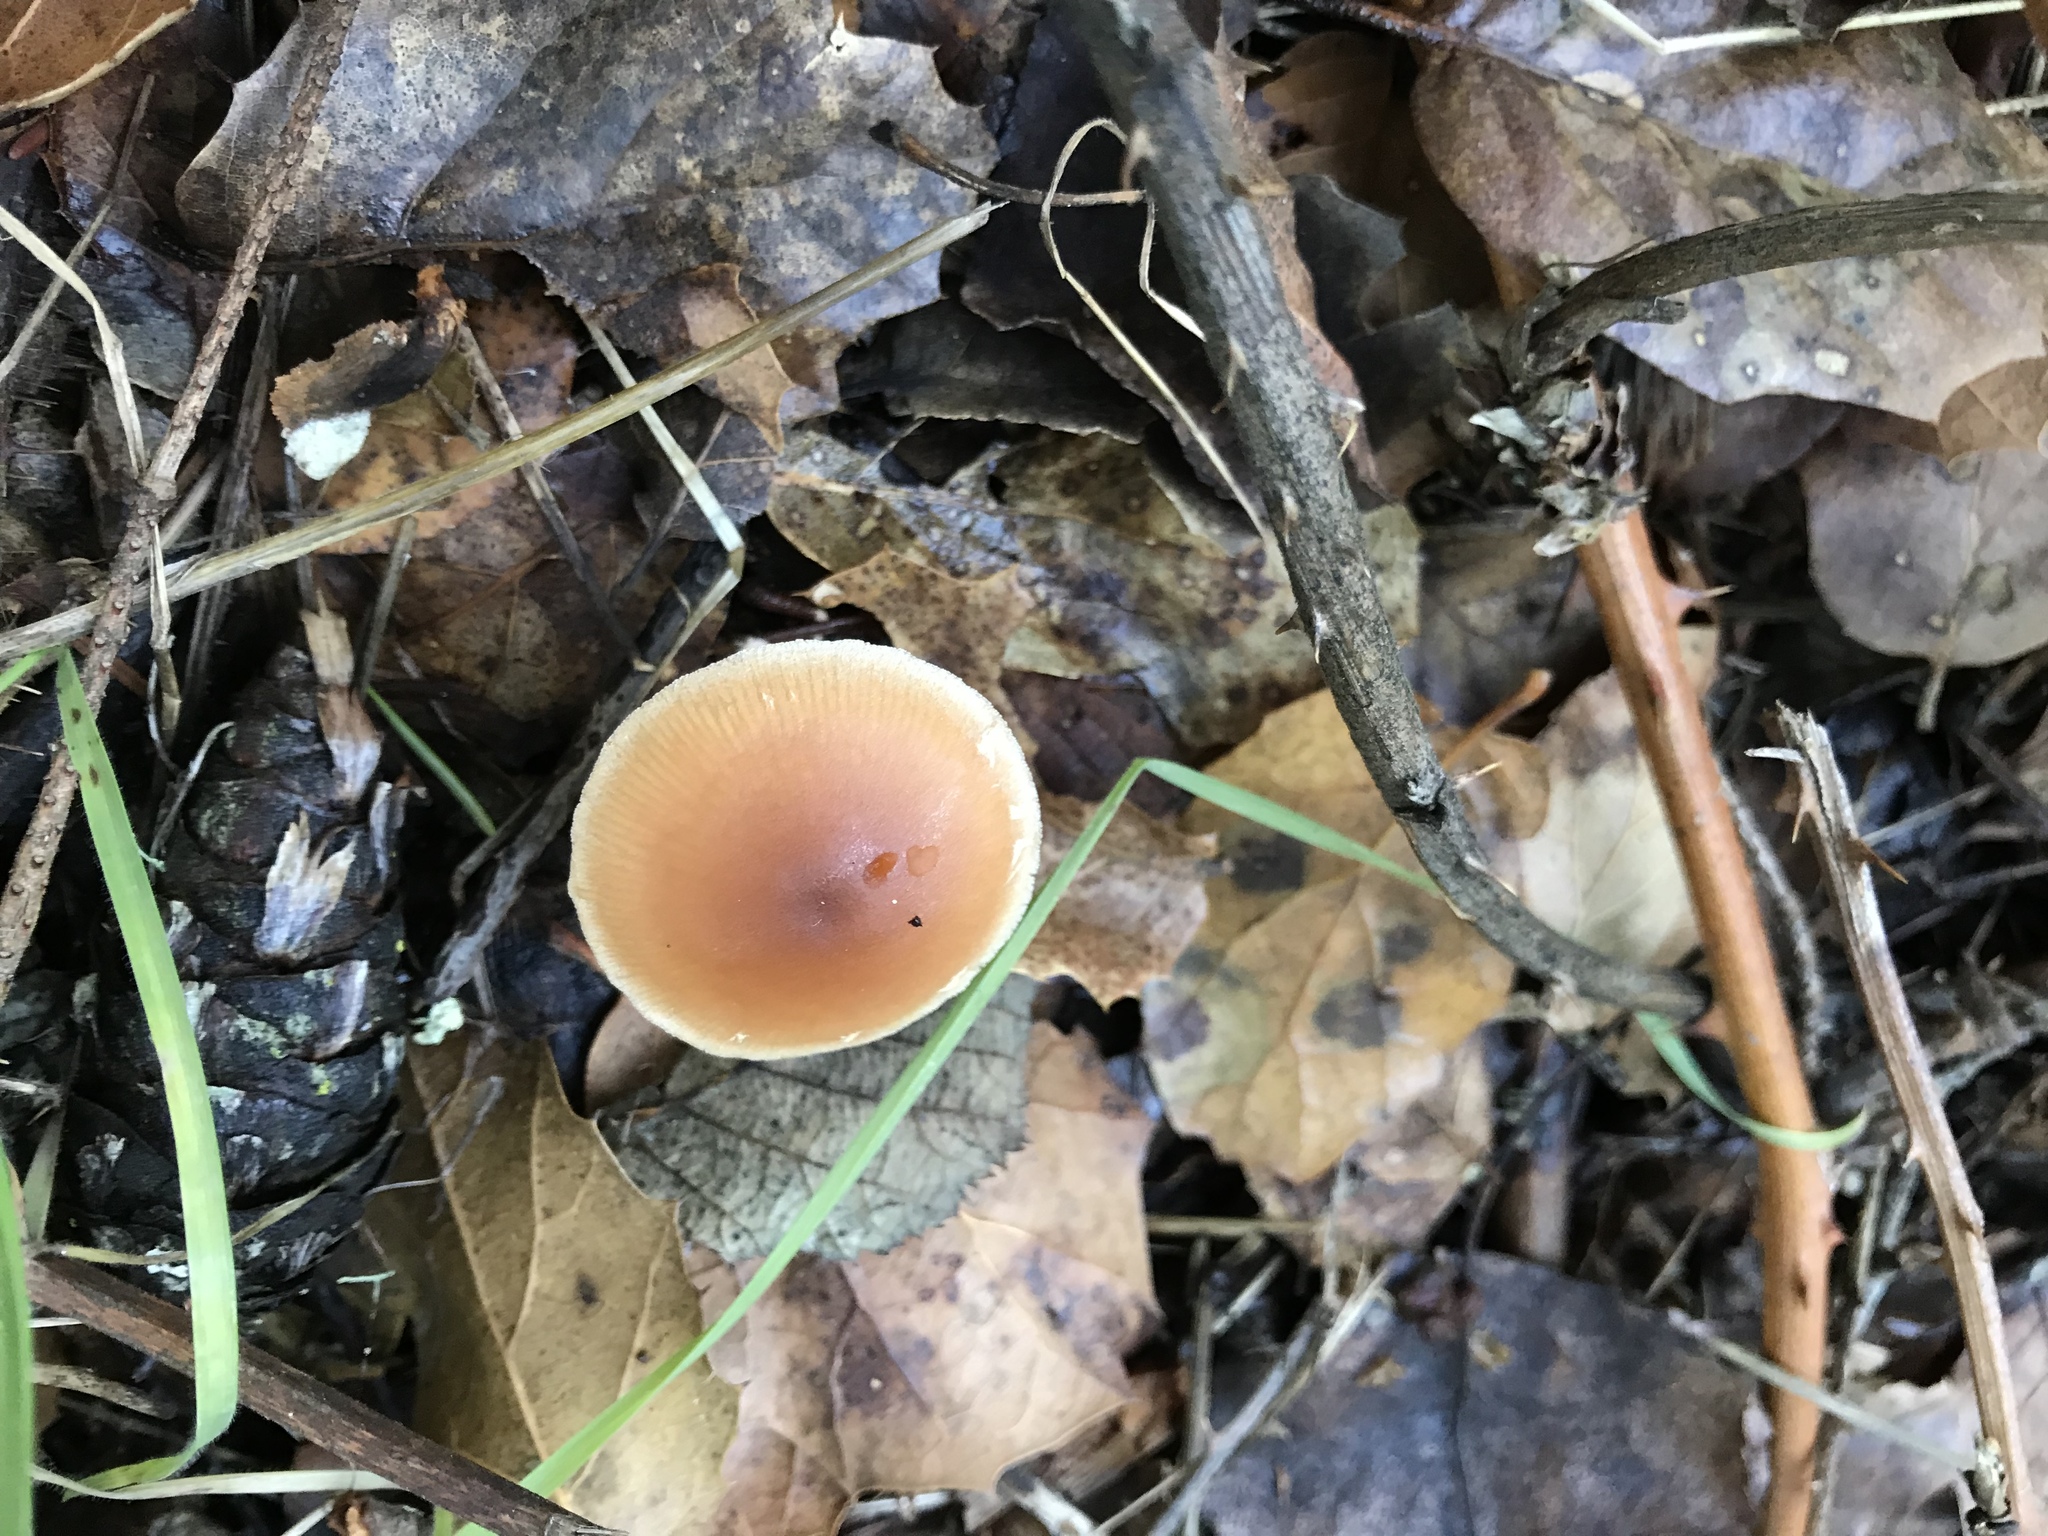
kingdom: Fungi
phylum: Basidiomycota
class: Agaricomycetes
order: Agaricales
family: Tubariaceae
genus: Tubaria
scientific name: Tubaria furfuracea
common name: Scurfy twiglet
